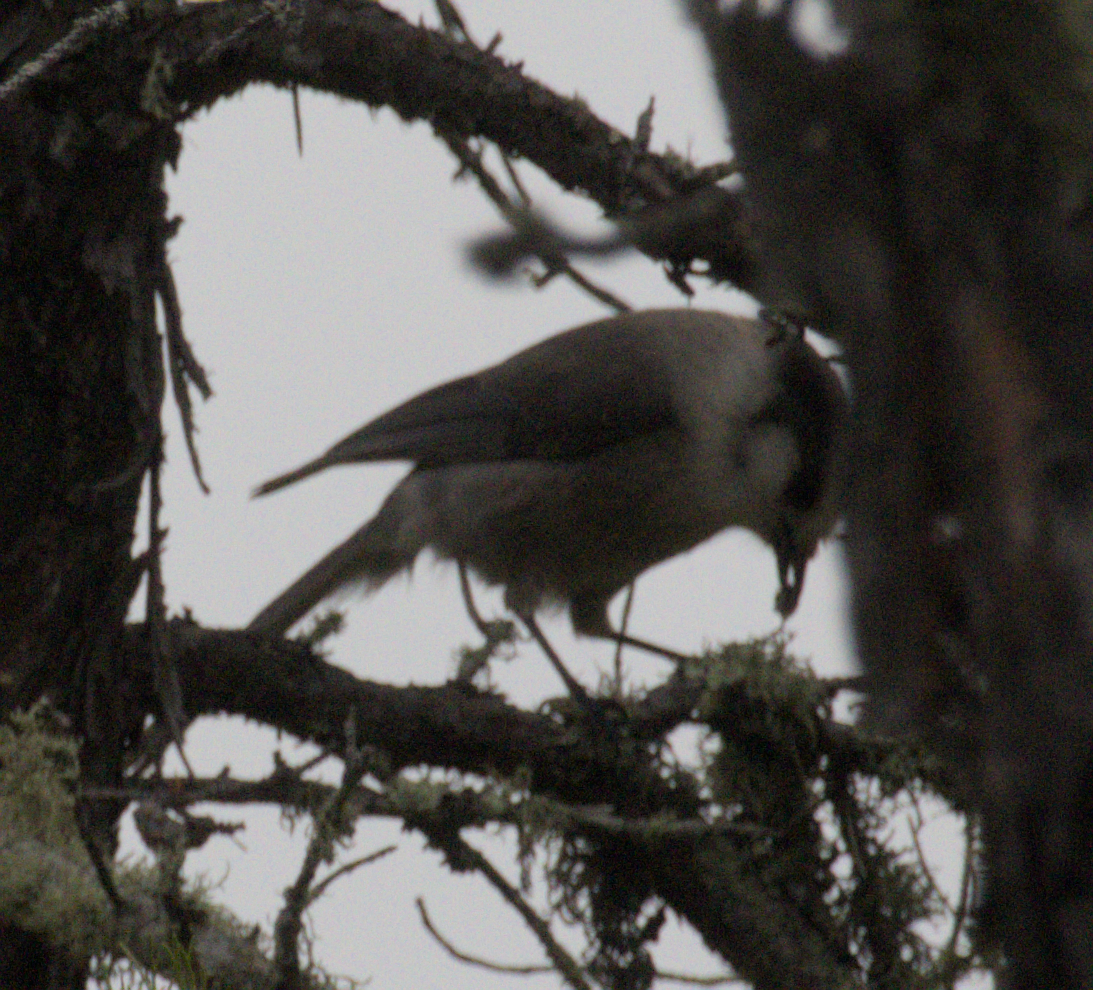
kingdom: Animalia
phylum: Chordata
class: Aves
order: Passeriformes
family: Corvidae
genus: Perisoreus
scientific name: Perisoreus canadensis
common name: Gray jay
